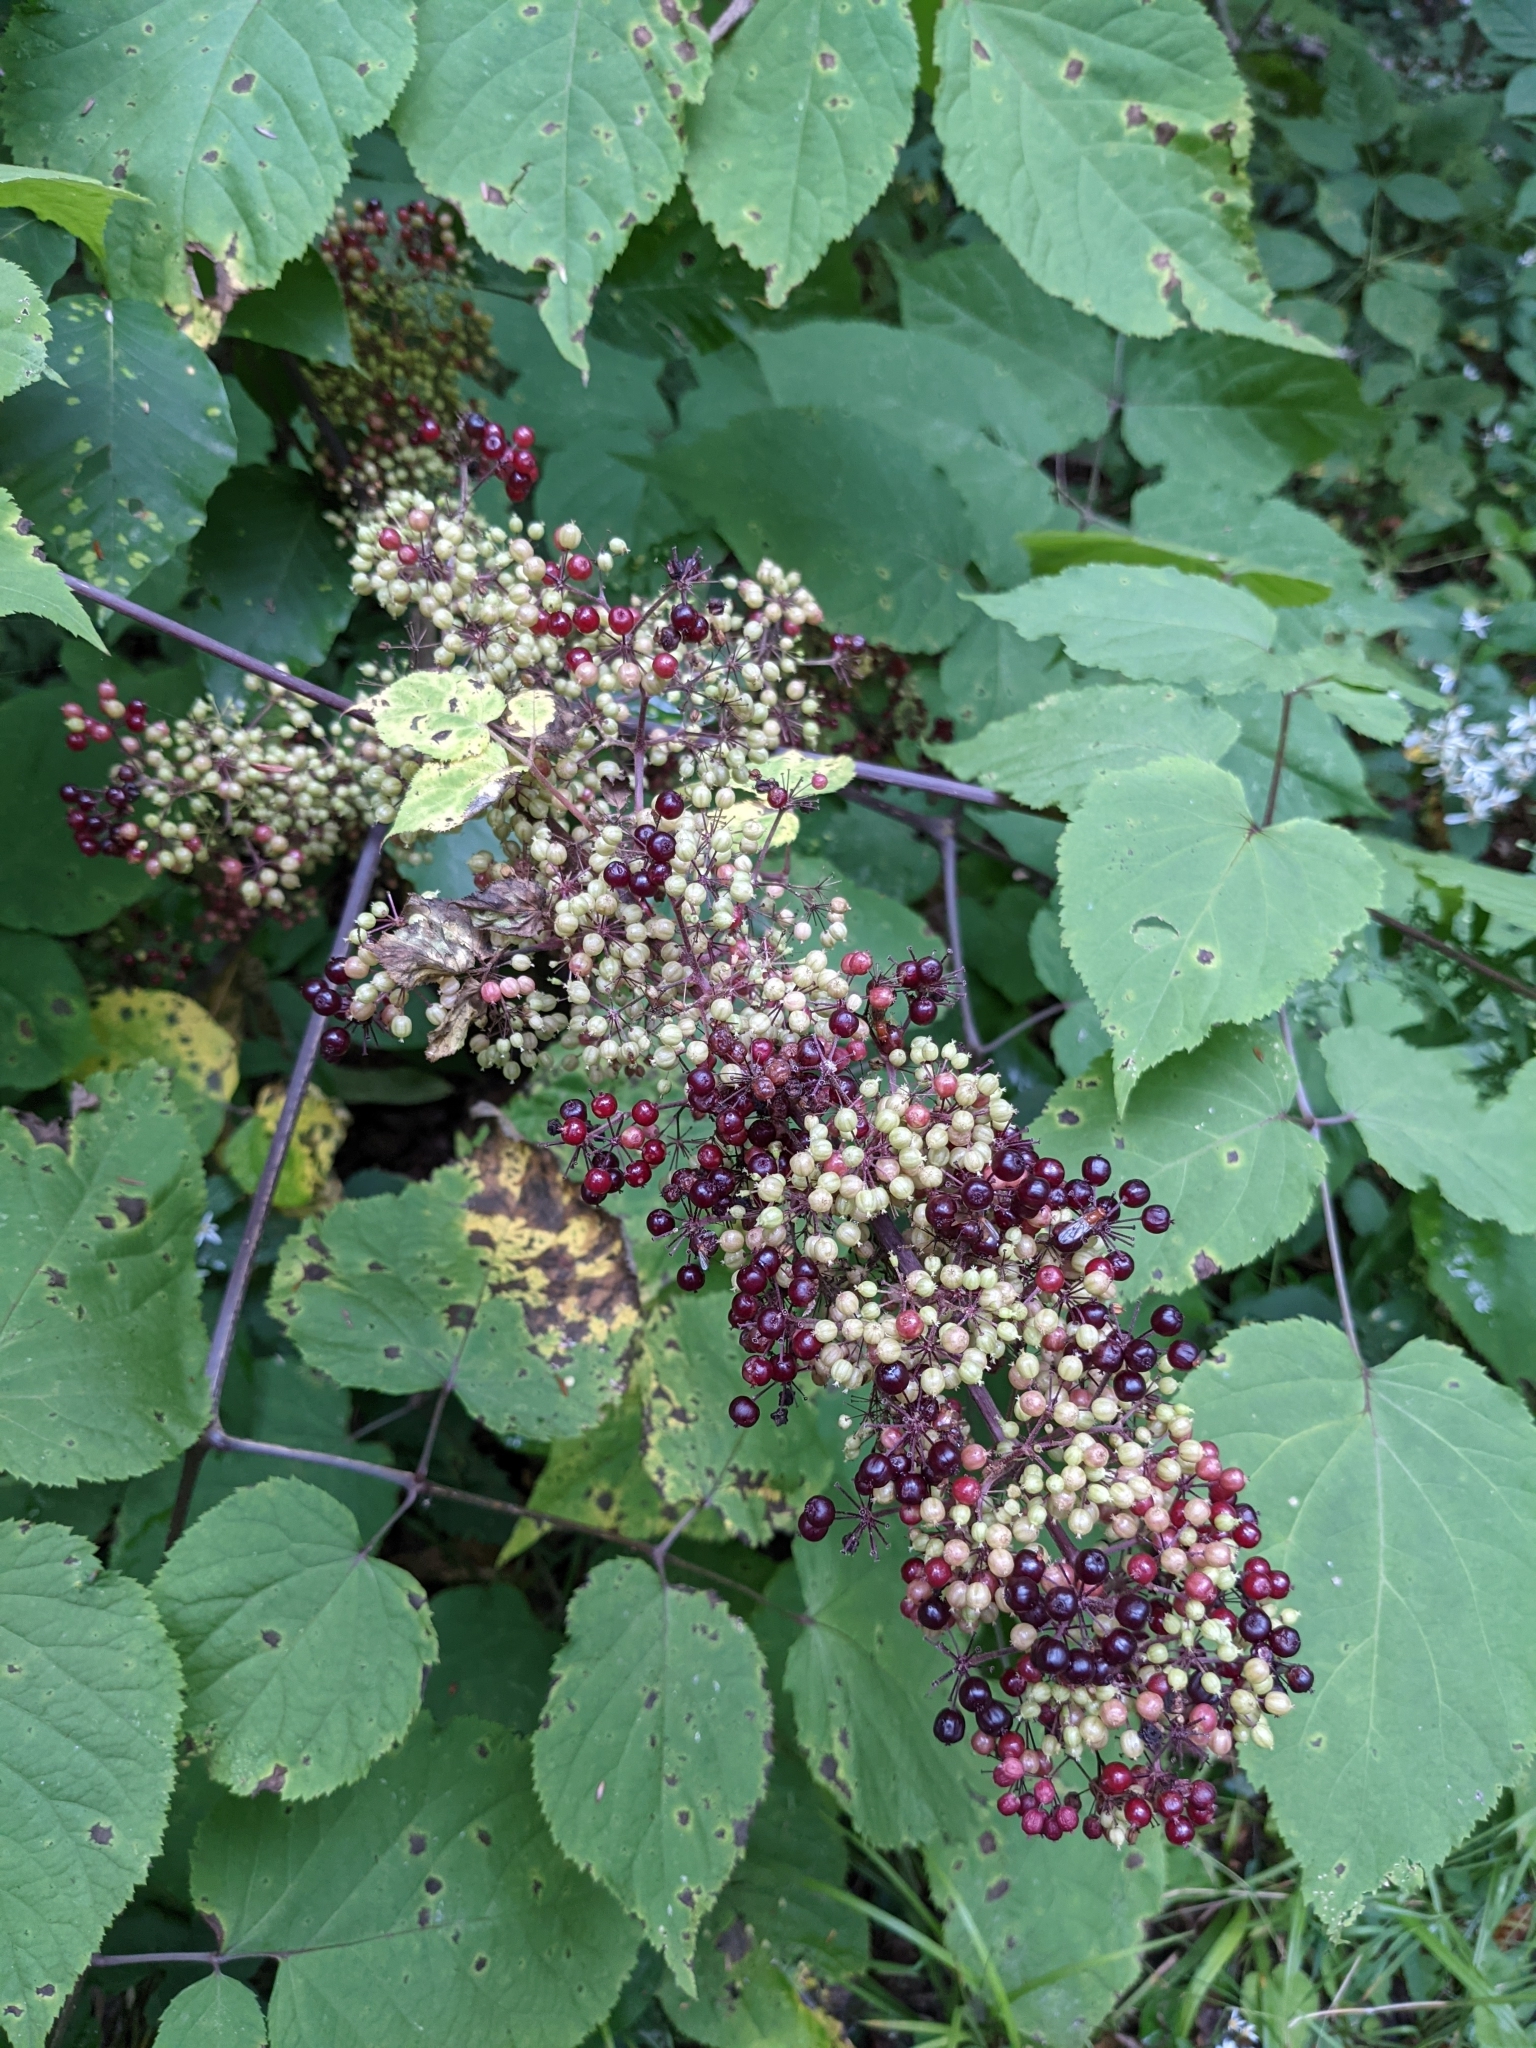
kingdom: Plantae
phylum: Tracheophyta
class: Magnoliopsida
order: Apiales
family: Araliaceae
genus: Aralia
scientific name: Aralia racemosa
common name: American-spikenard
